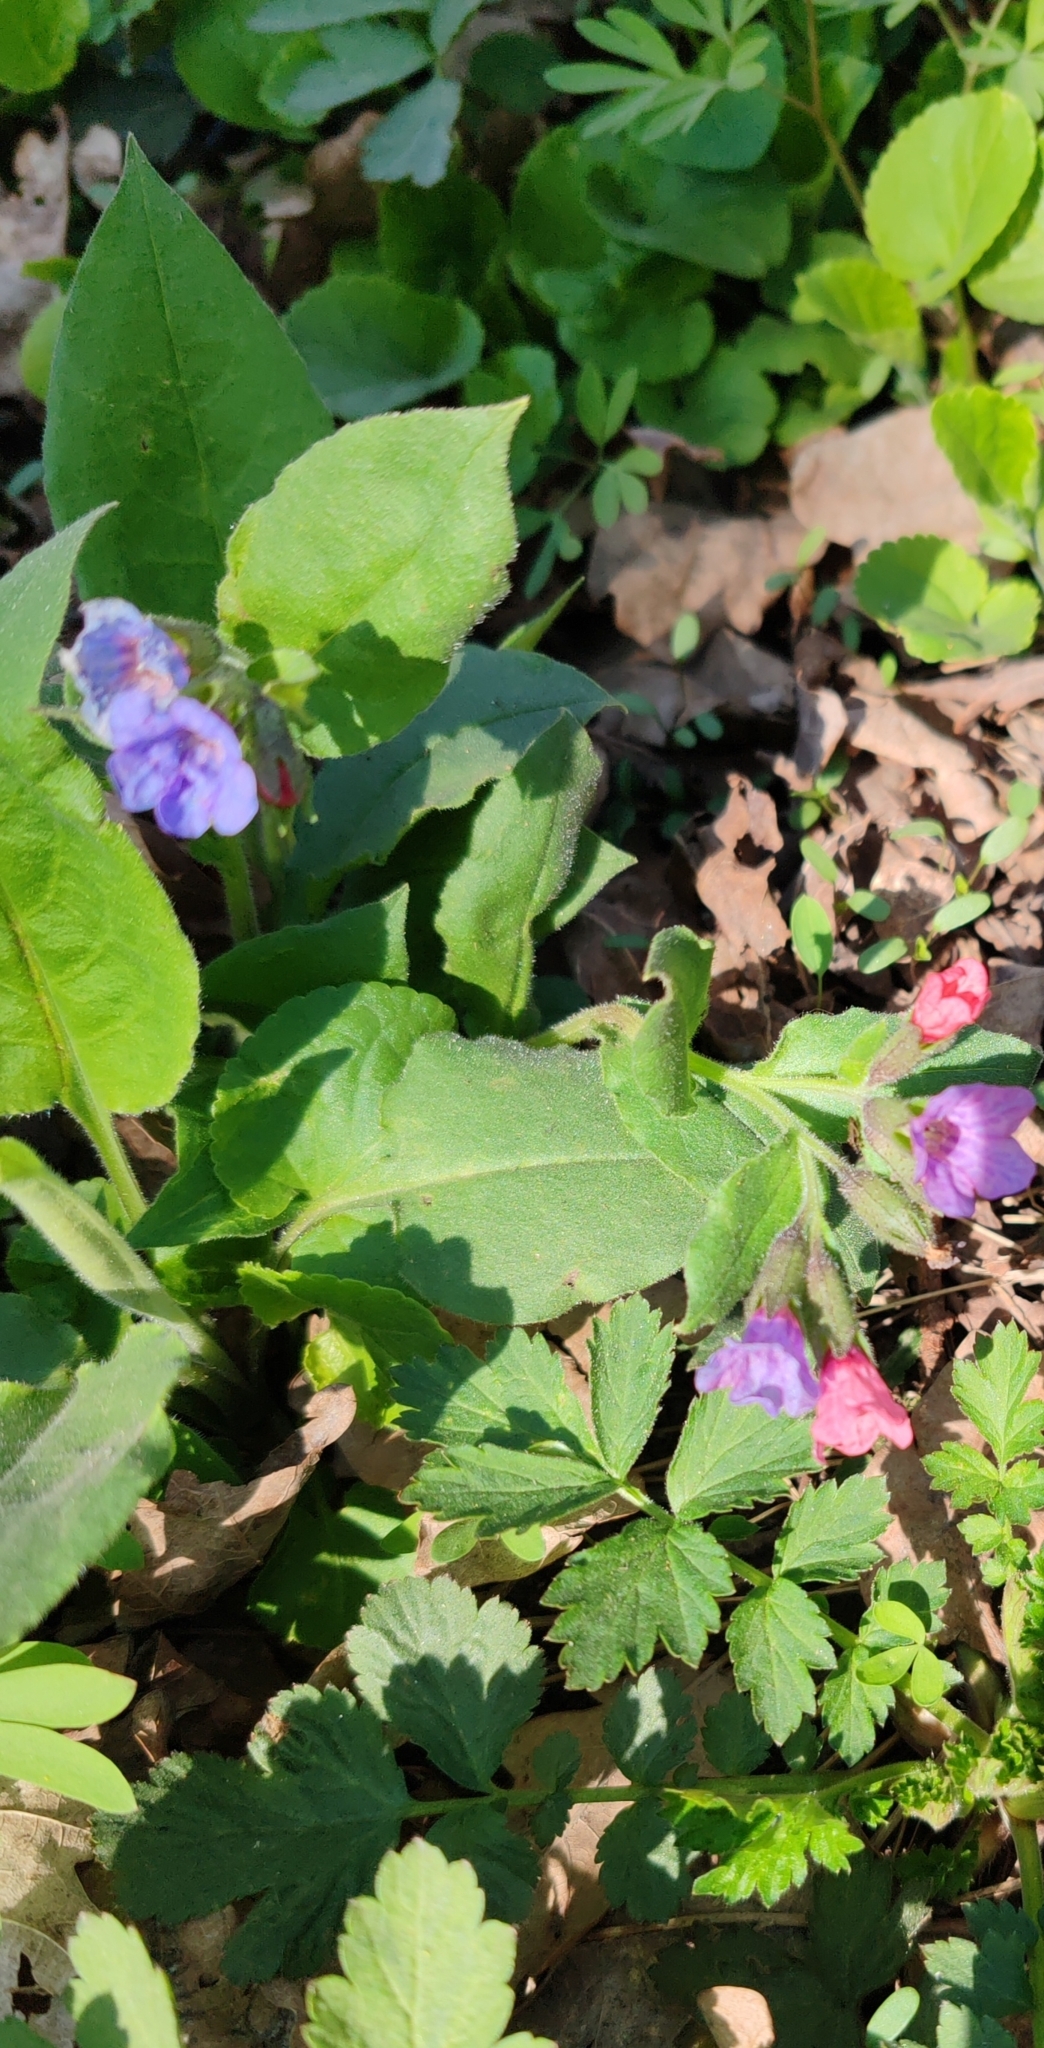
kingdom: Plantae
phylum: Tracheophyta
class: Magnoliopsida
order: Boraginales
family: Boraginaceae
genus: Pulmonaria
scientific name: Pulmonaria obscura
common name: Suffolk lungwort
